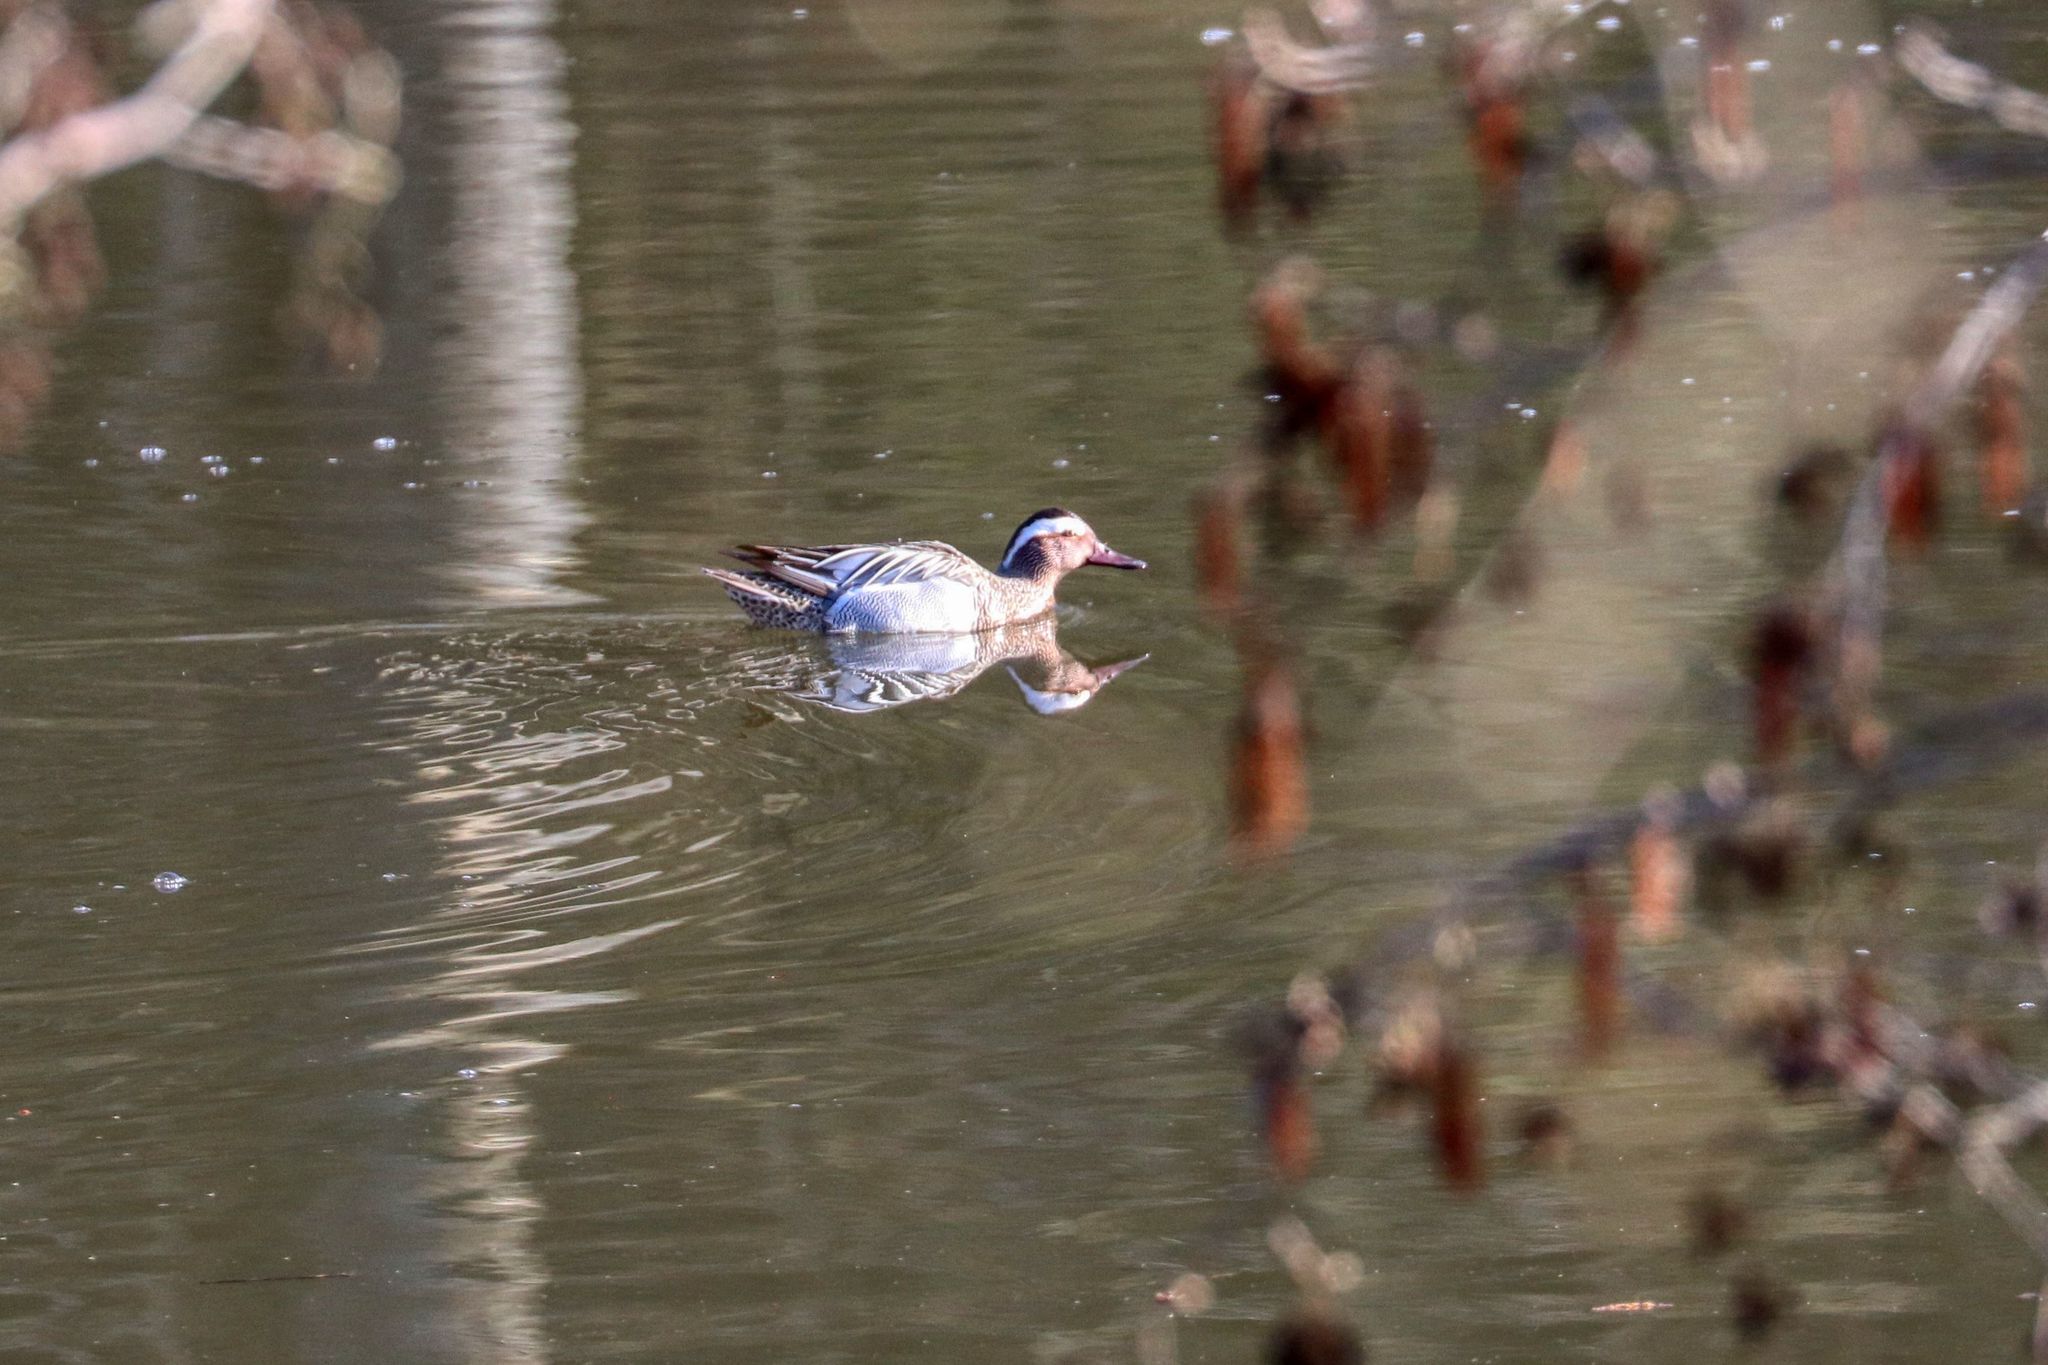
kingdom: Animalia
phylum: Chordata
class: Aves
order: Anseriformes
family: Anatidae
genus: Spatula
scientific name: Spatula querquedula
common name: Garganey
